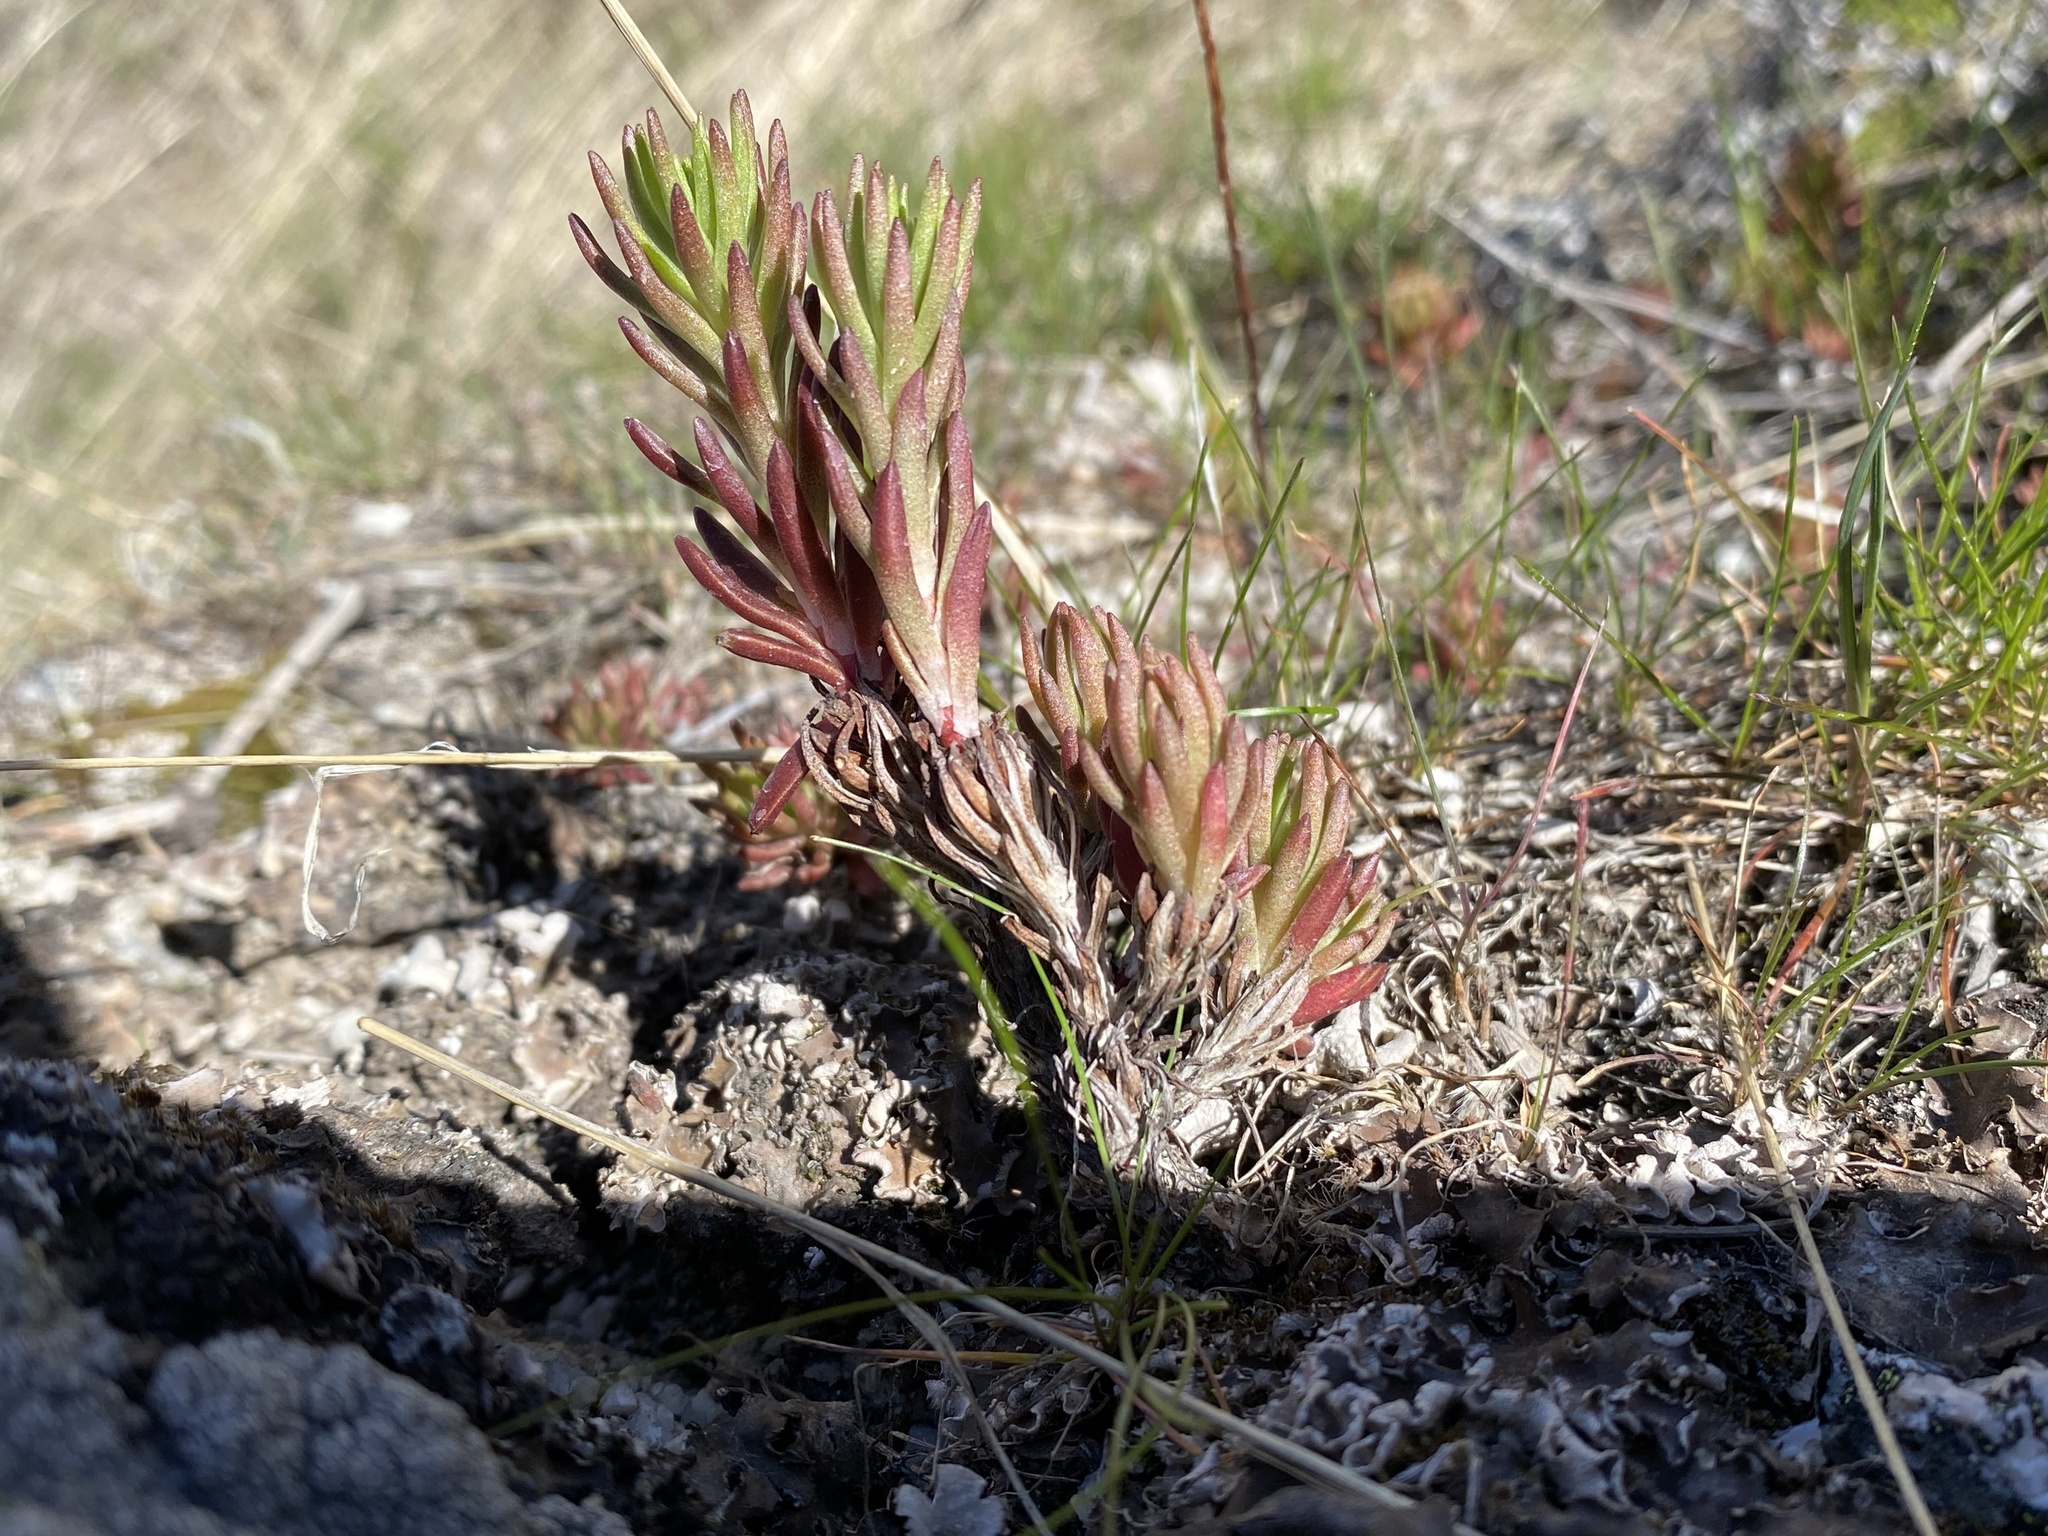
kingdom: Plantae
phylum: Tracheophyta
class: Magnoliopsida
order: Saxifragales
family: Crassulaceae
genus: Sedum
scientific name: Sedum stenopetalum
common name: Narrow-petaled stonecrop
